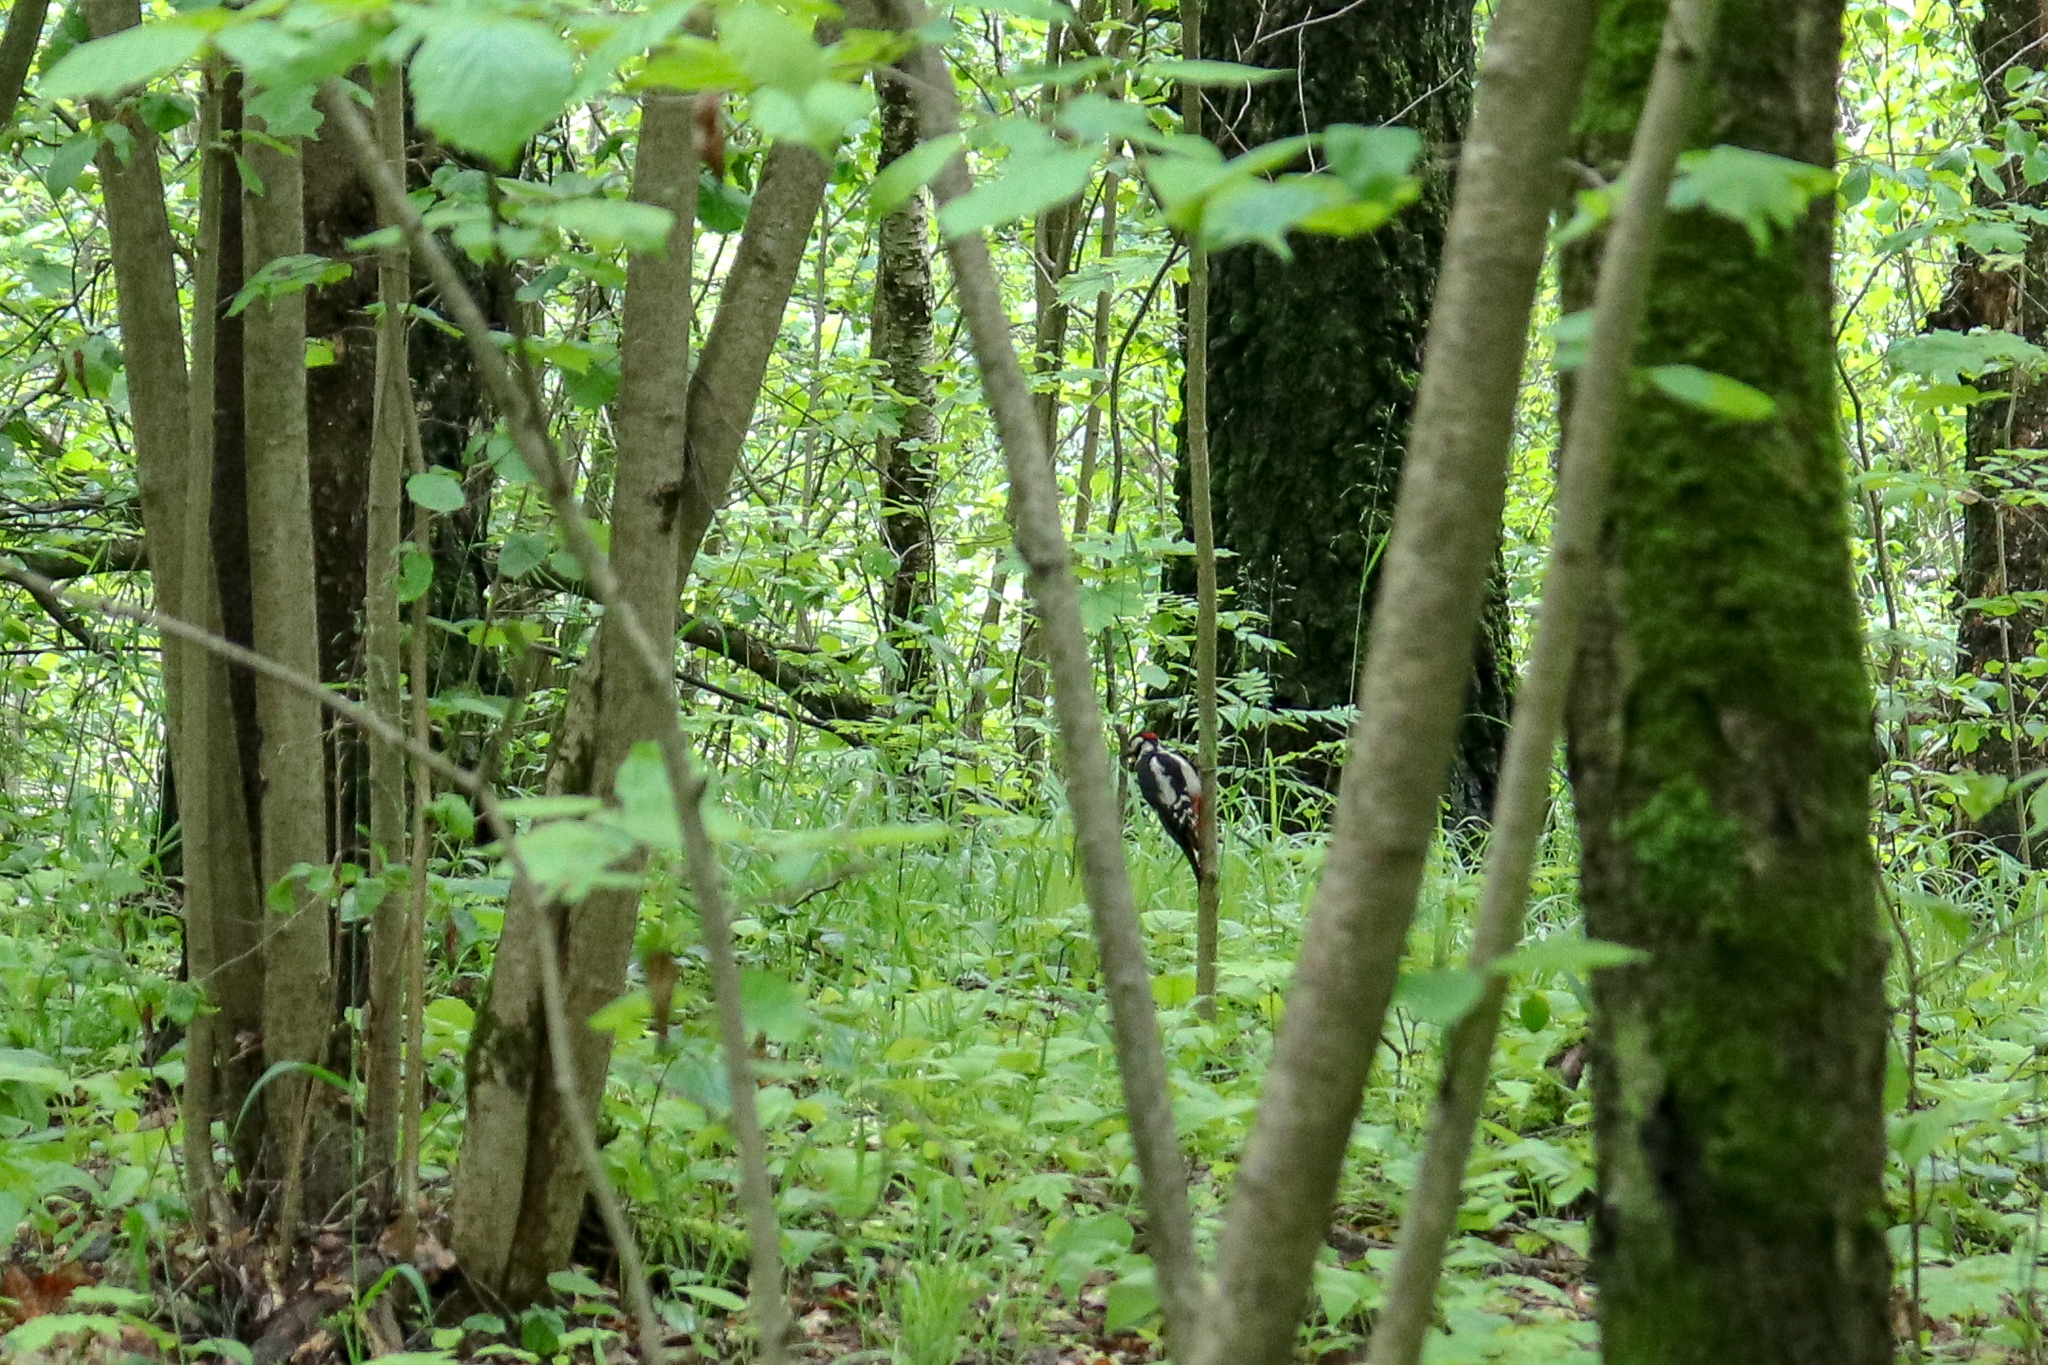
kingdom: Animalia
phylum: Chordata
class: Aves
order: Piciformes
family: Picidae
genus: Dendrocopos
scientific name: Dendrocopos major
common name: Great spotted woodpecker
